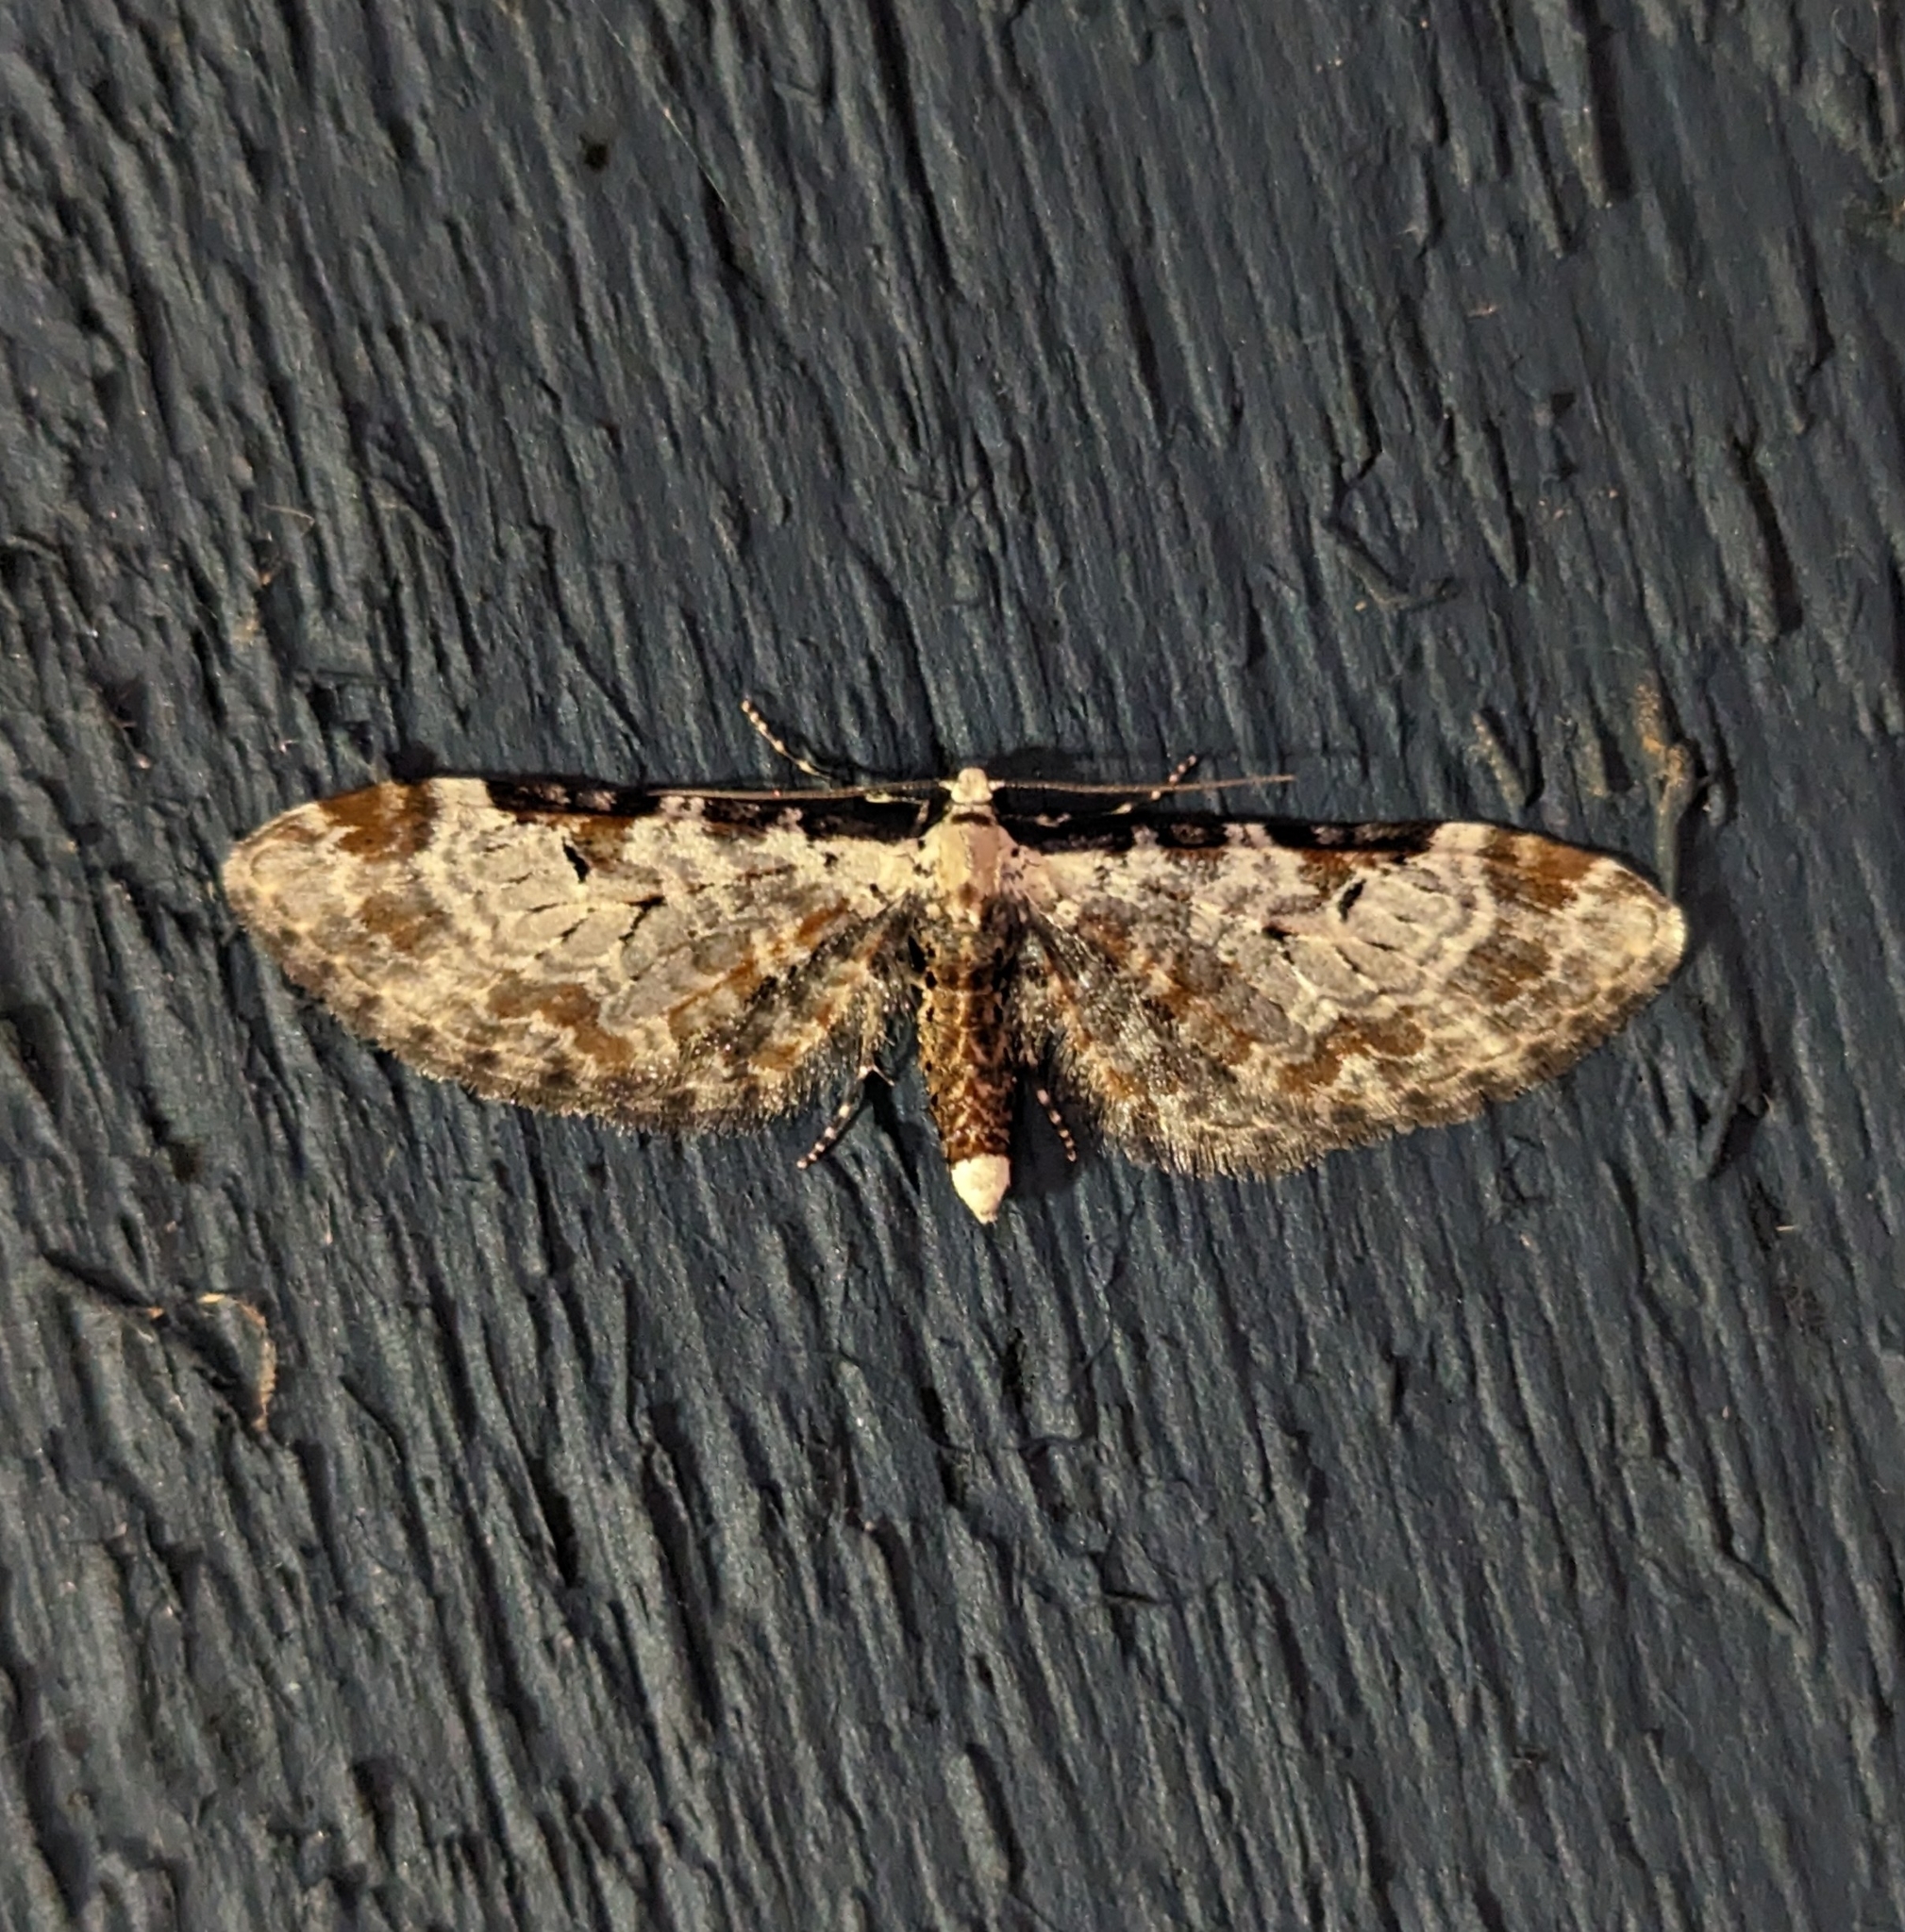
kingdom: Animalia
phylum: Arthropoda
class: Insecta
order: Lepidoptera
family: Geometridae
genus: Eupithecia
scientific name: Eupithecia ravocostaliata
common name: Great varigated pug
